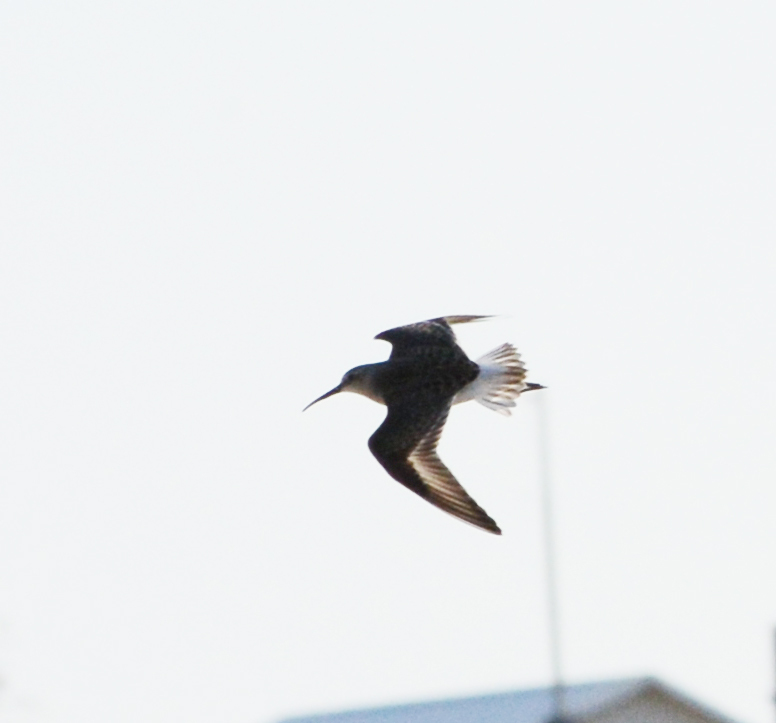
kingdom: Animalia
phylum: Chordata
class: Aves
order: Charadriiformes
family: Scolopacidae
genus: Calidris
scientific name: Calidris ferruginea
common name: Curlew sandpiper
